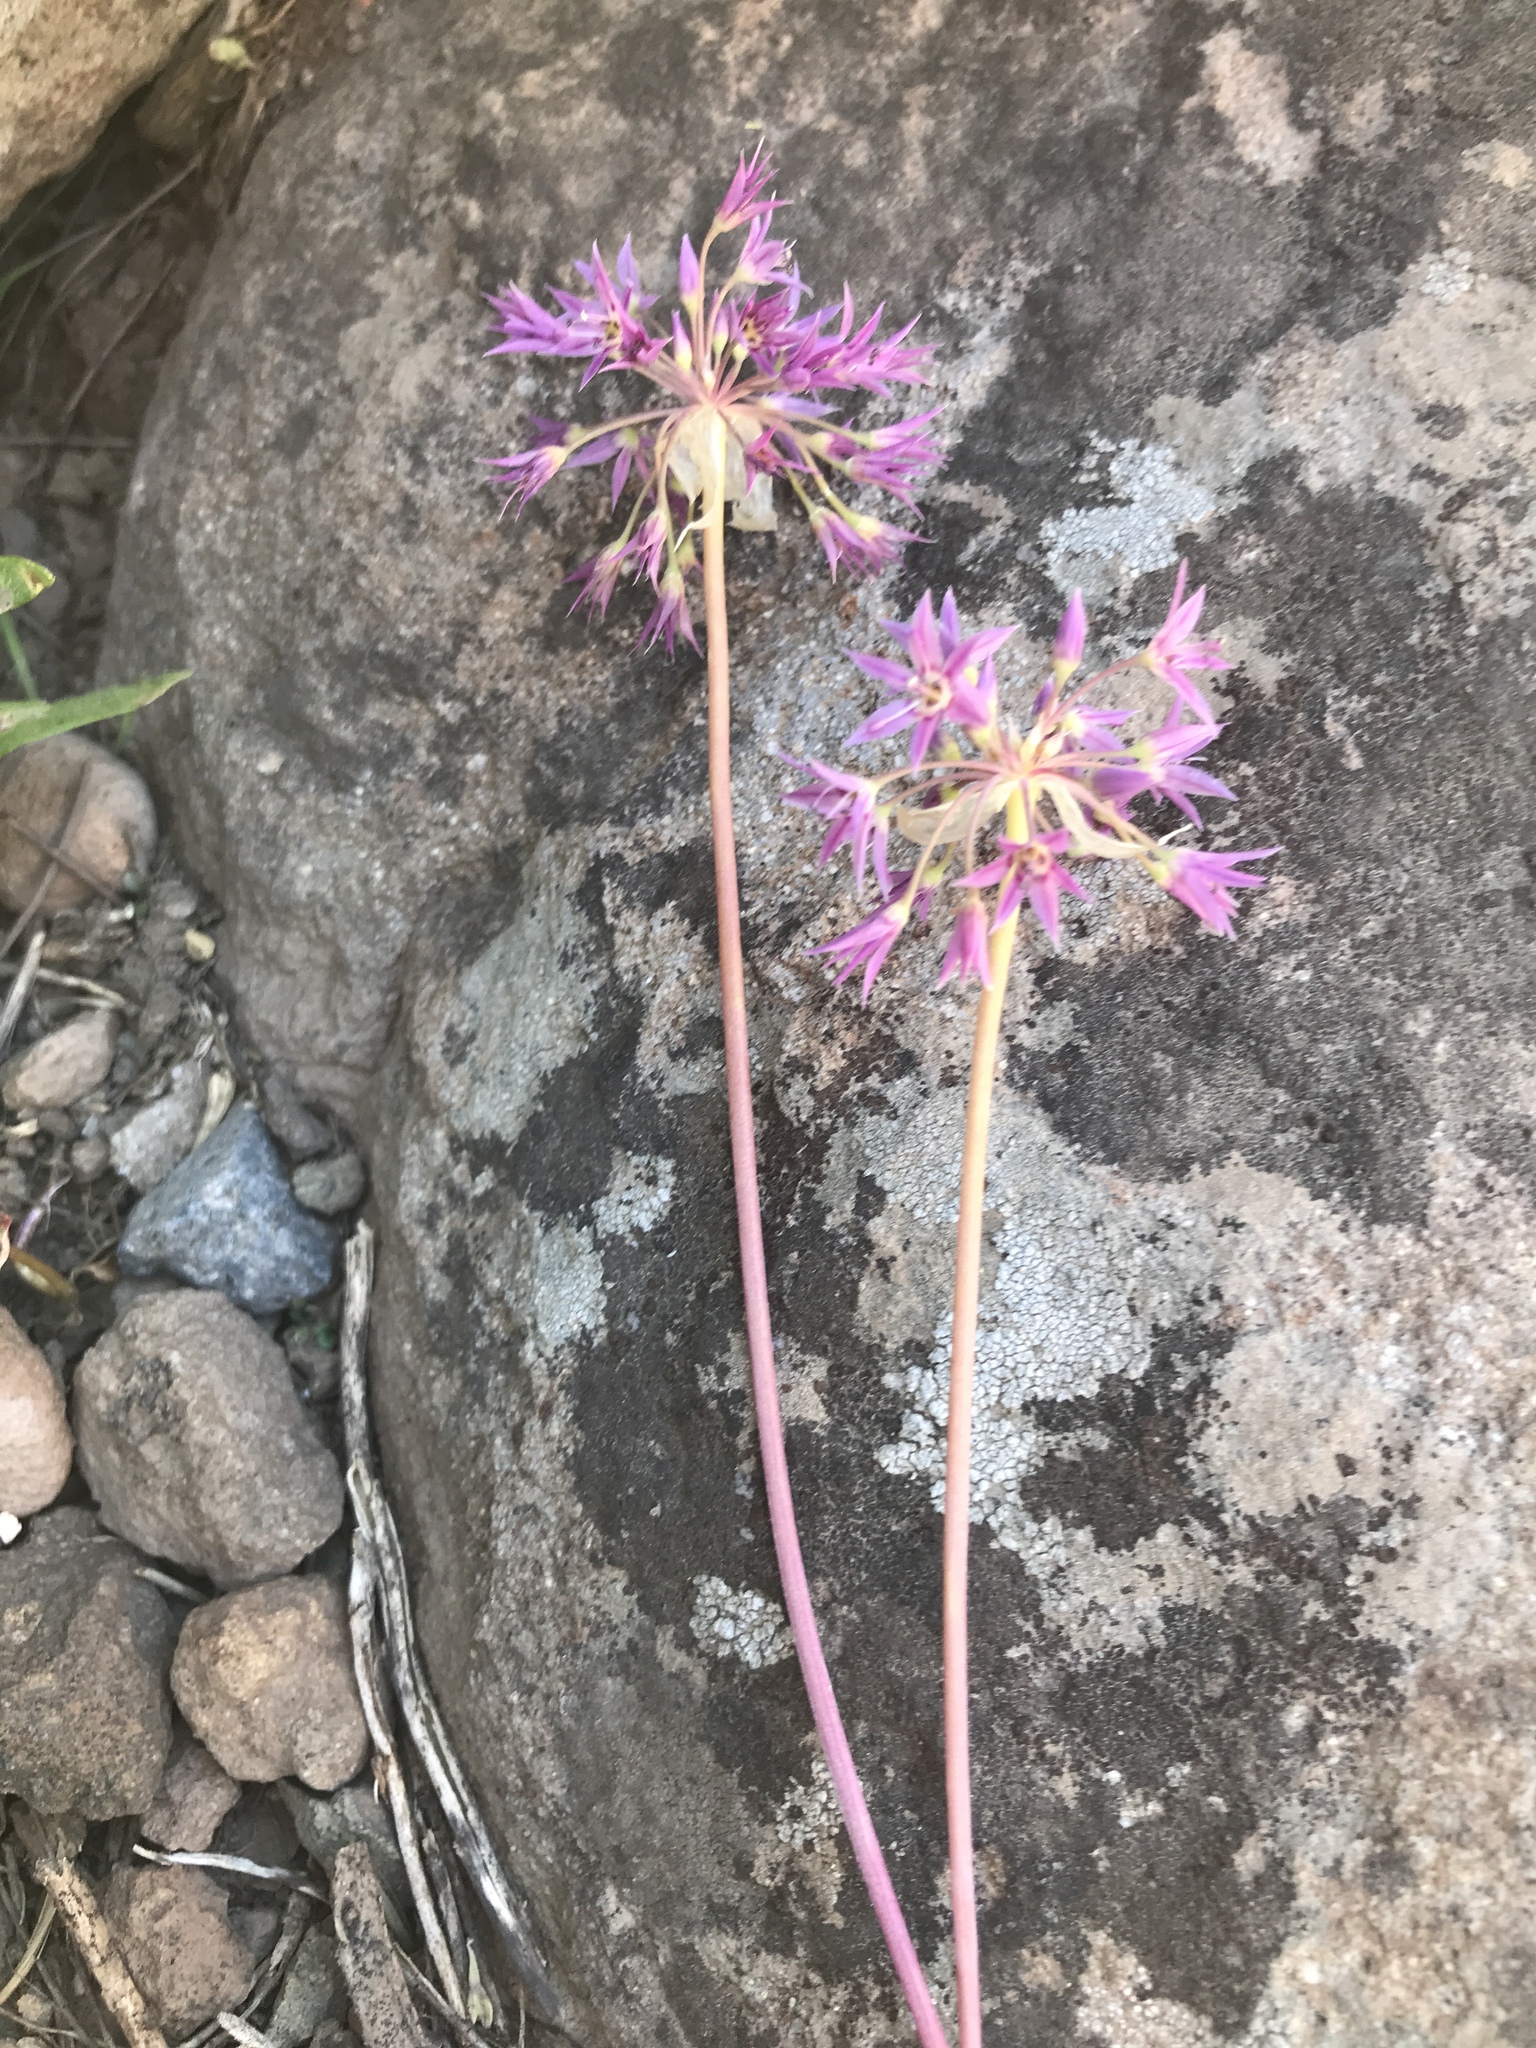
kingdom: Plantae
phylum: Tracheophyta
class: Liliopsida
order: Asparagales
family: Amaryllidaceae
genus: Allium
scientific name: Allium campanulatum
